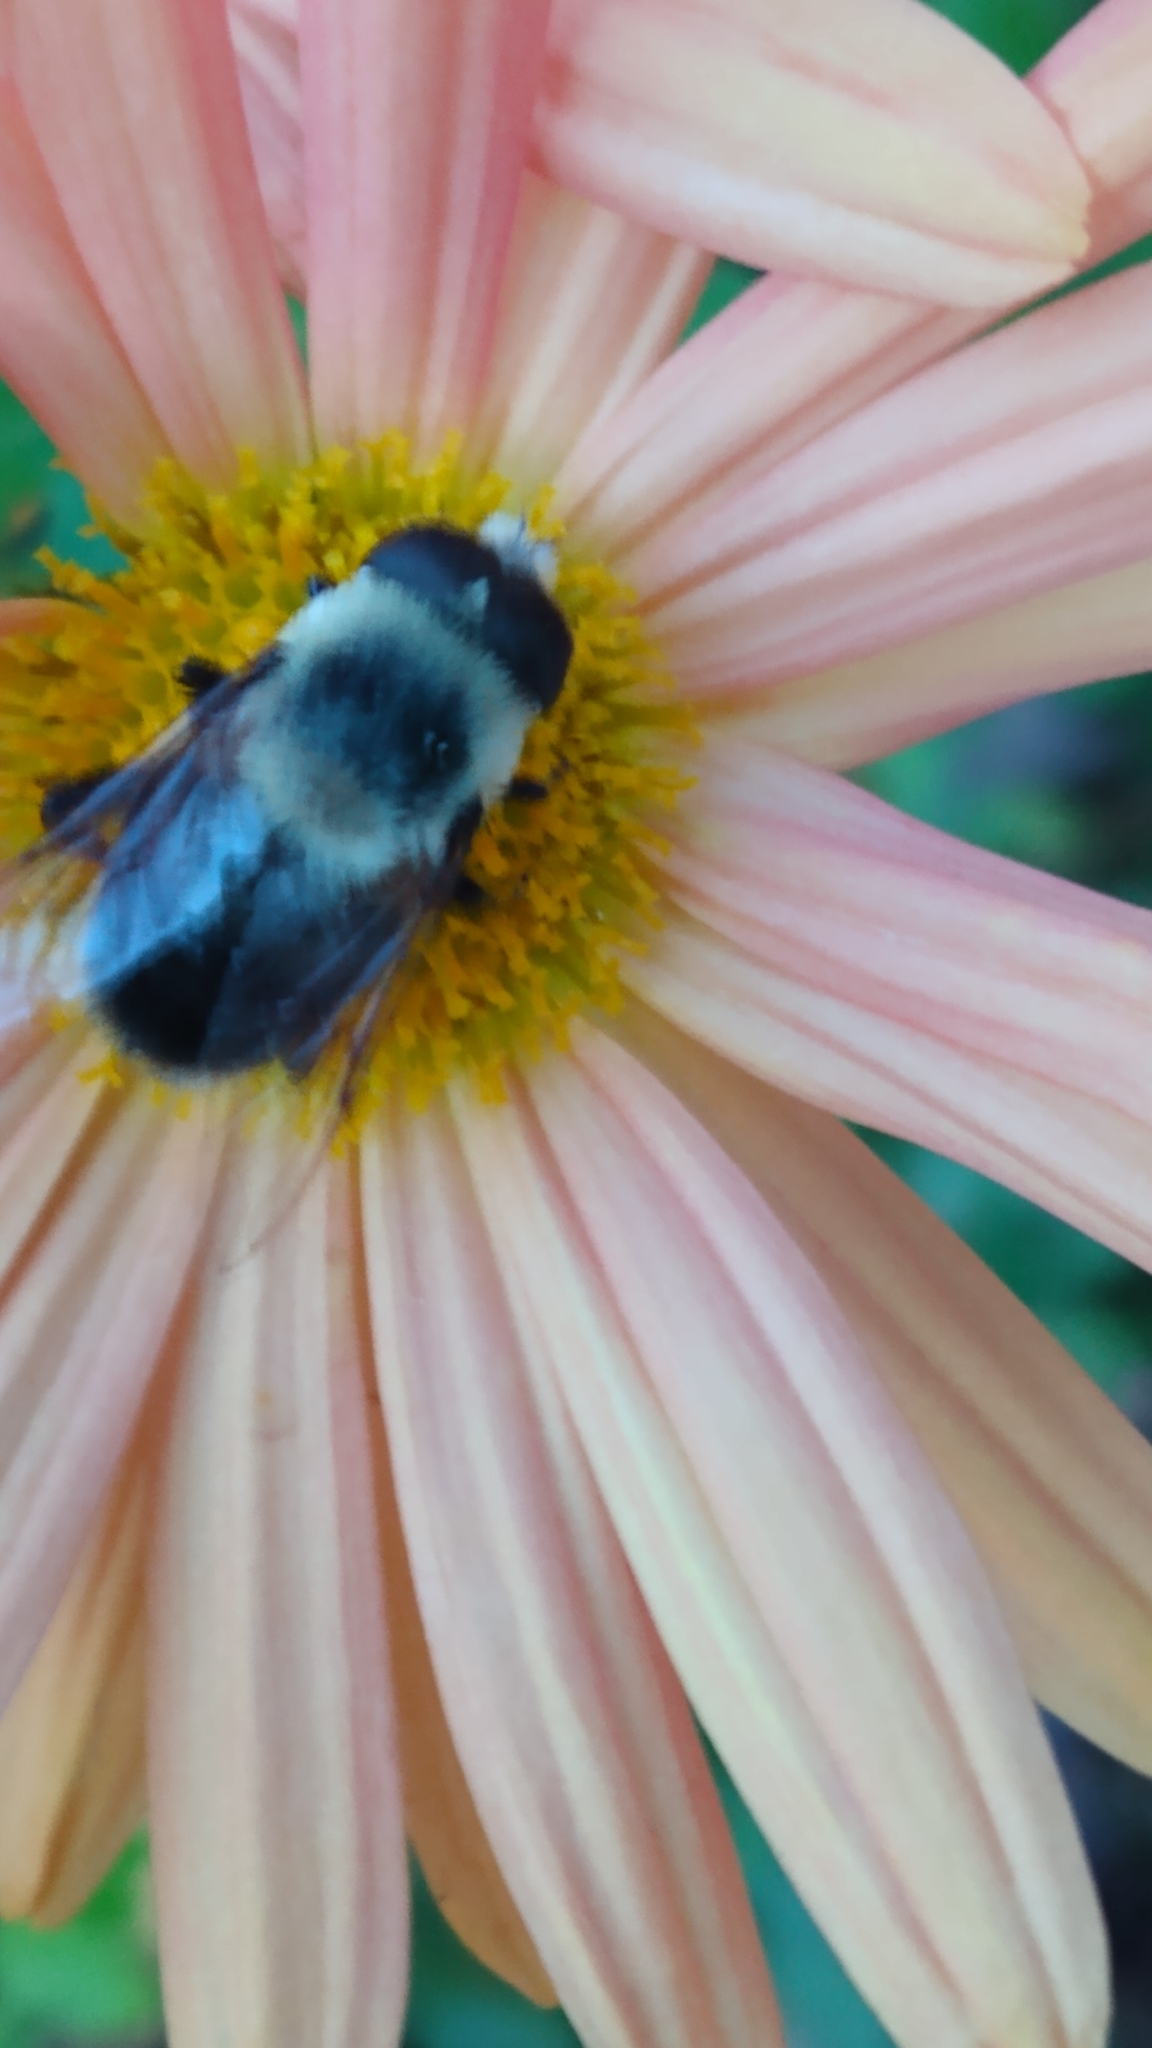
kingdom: Animalia
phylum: Arthropoda
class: Insecta
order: Diptera
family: Syrphidae
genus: Eristalis
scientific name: Eristalis flavipes
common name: Orange-legged drone fly
